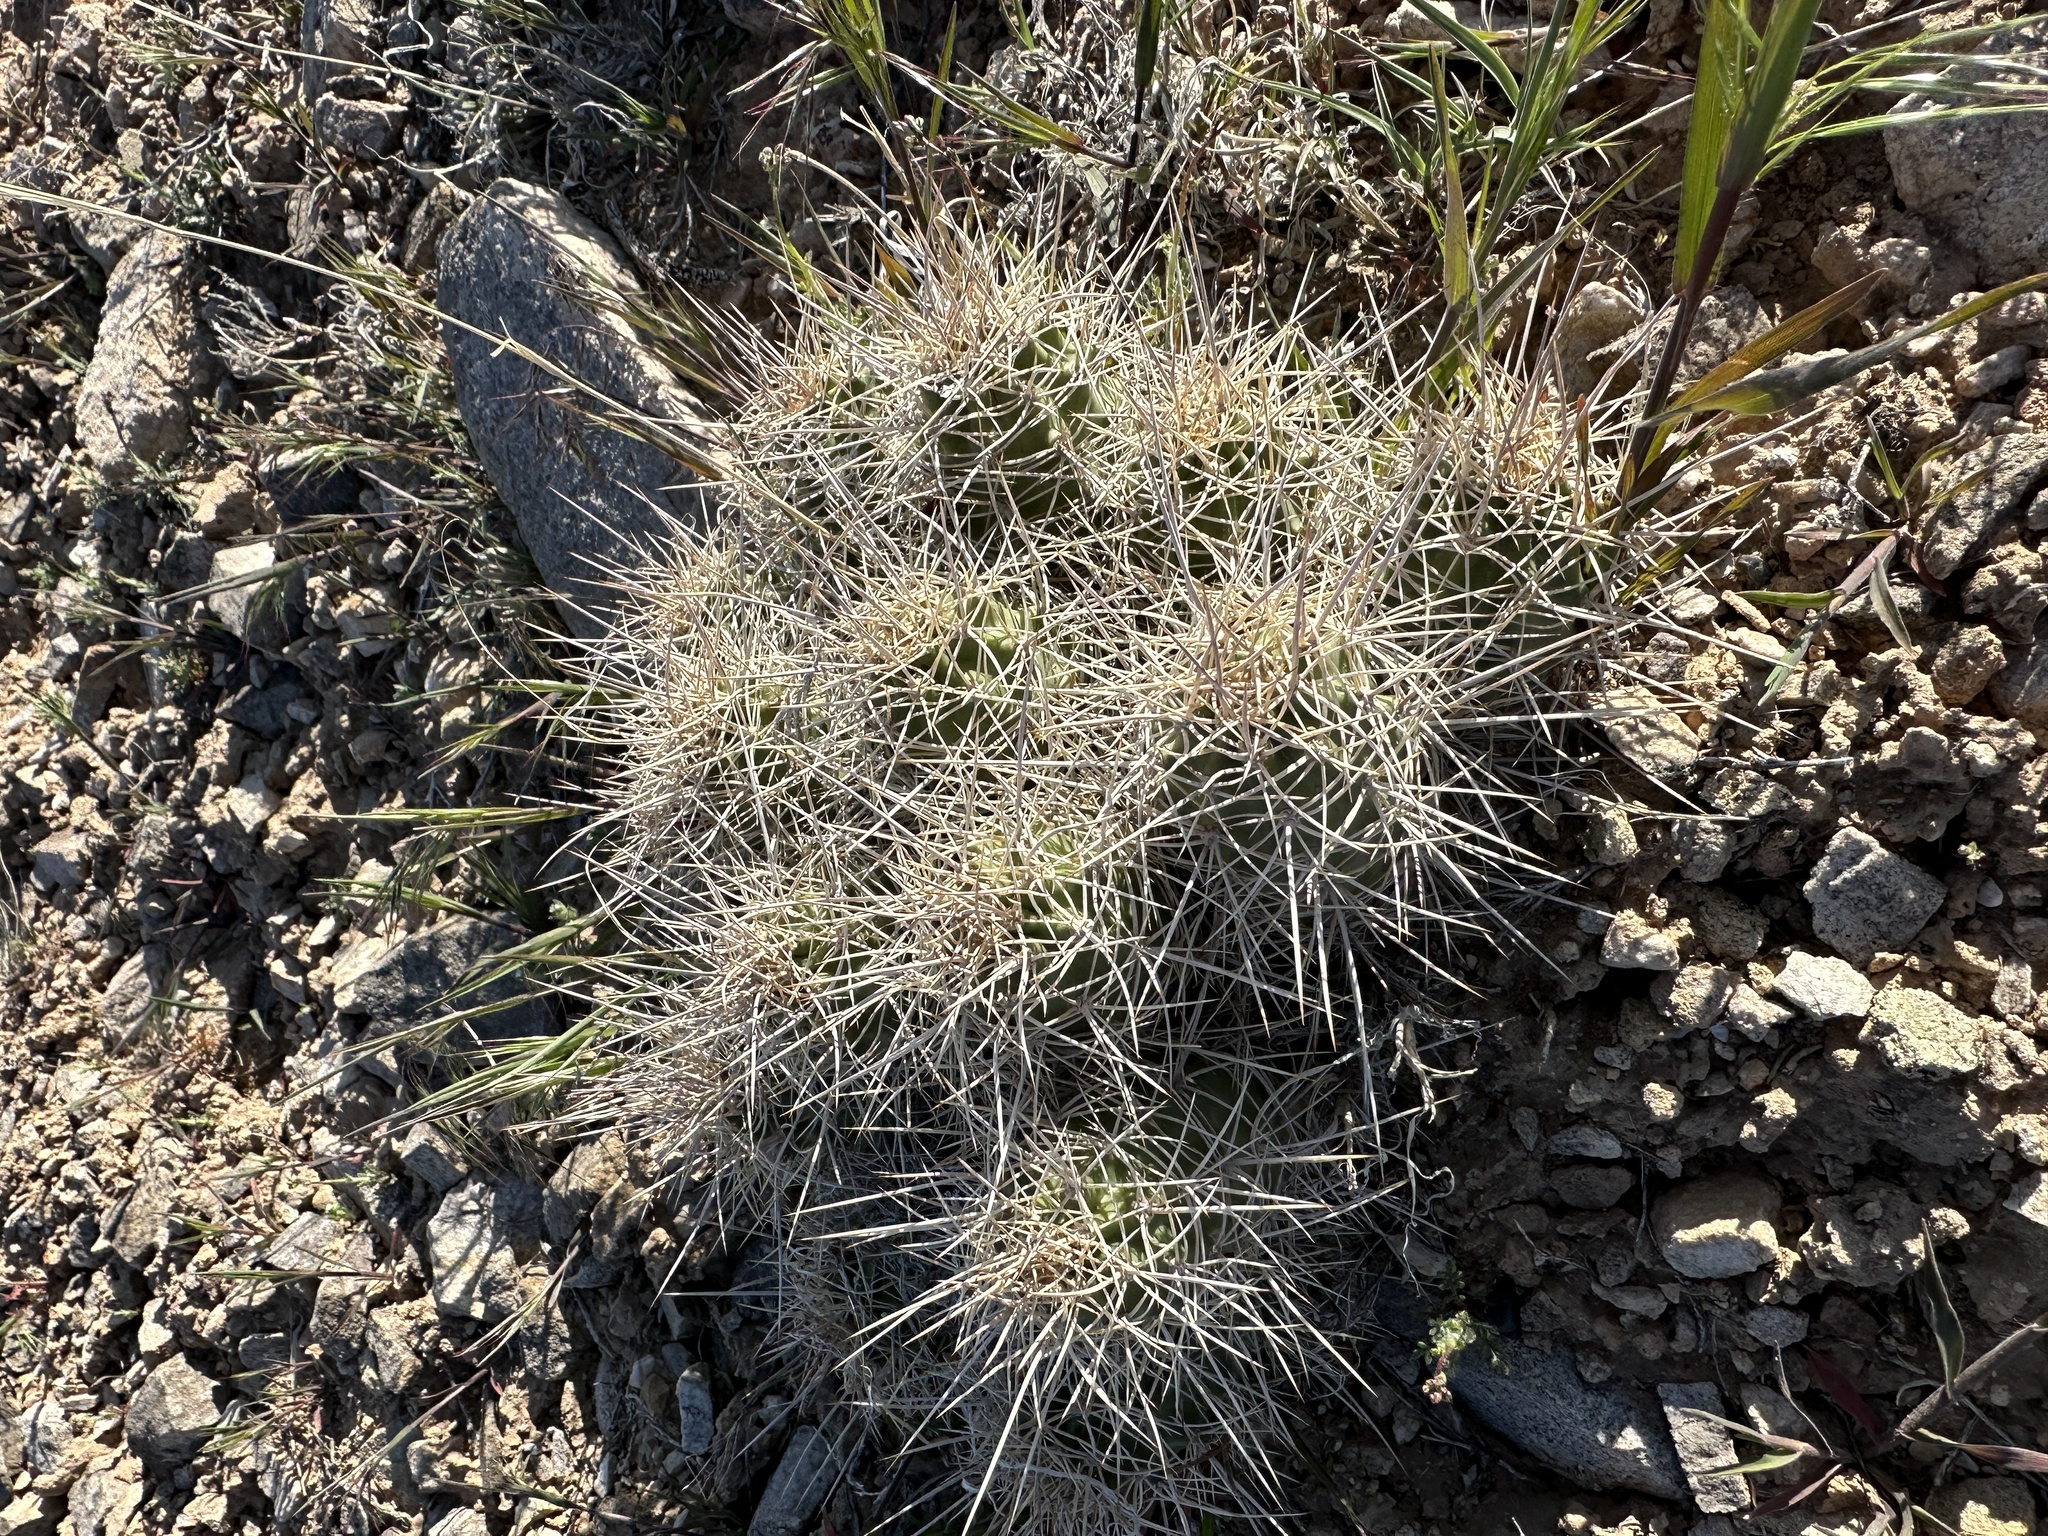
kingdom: Plantae
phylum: Tracheophyta
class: Magnoliopsida
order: Caryophyllales
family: Cactaceae
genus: Echinocereus
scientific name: Echinocereus triglochidiatus
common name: Claretcup hedgehog
